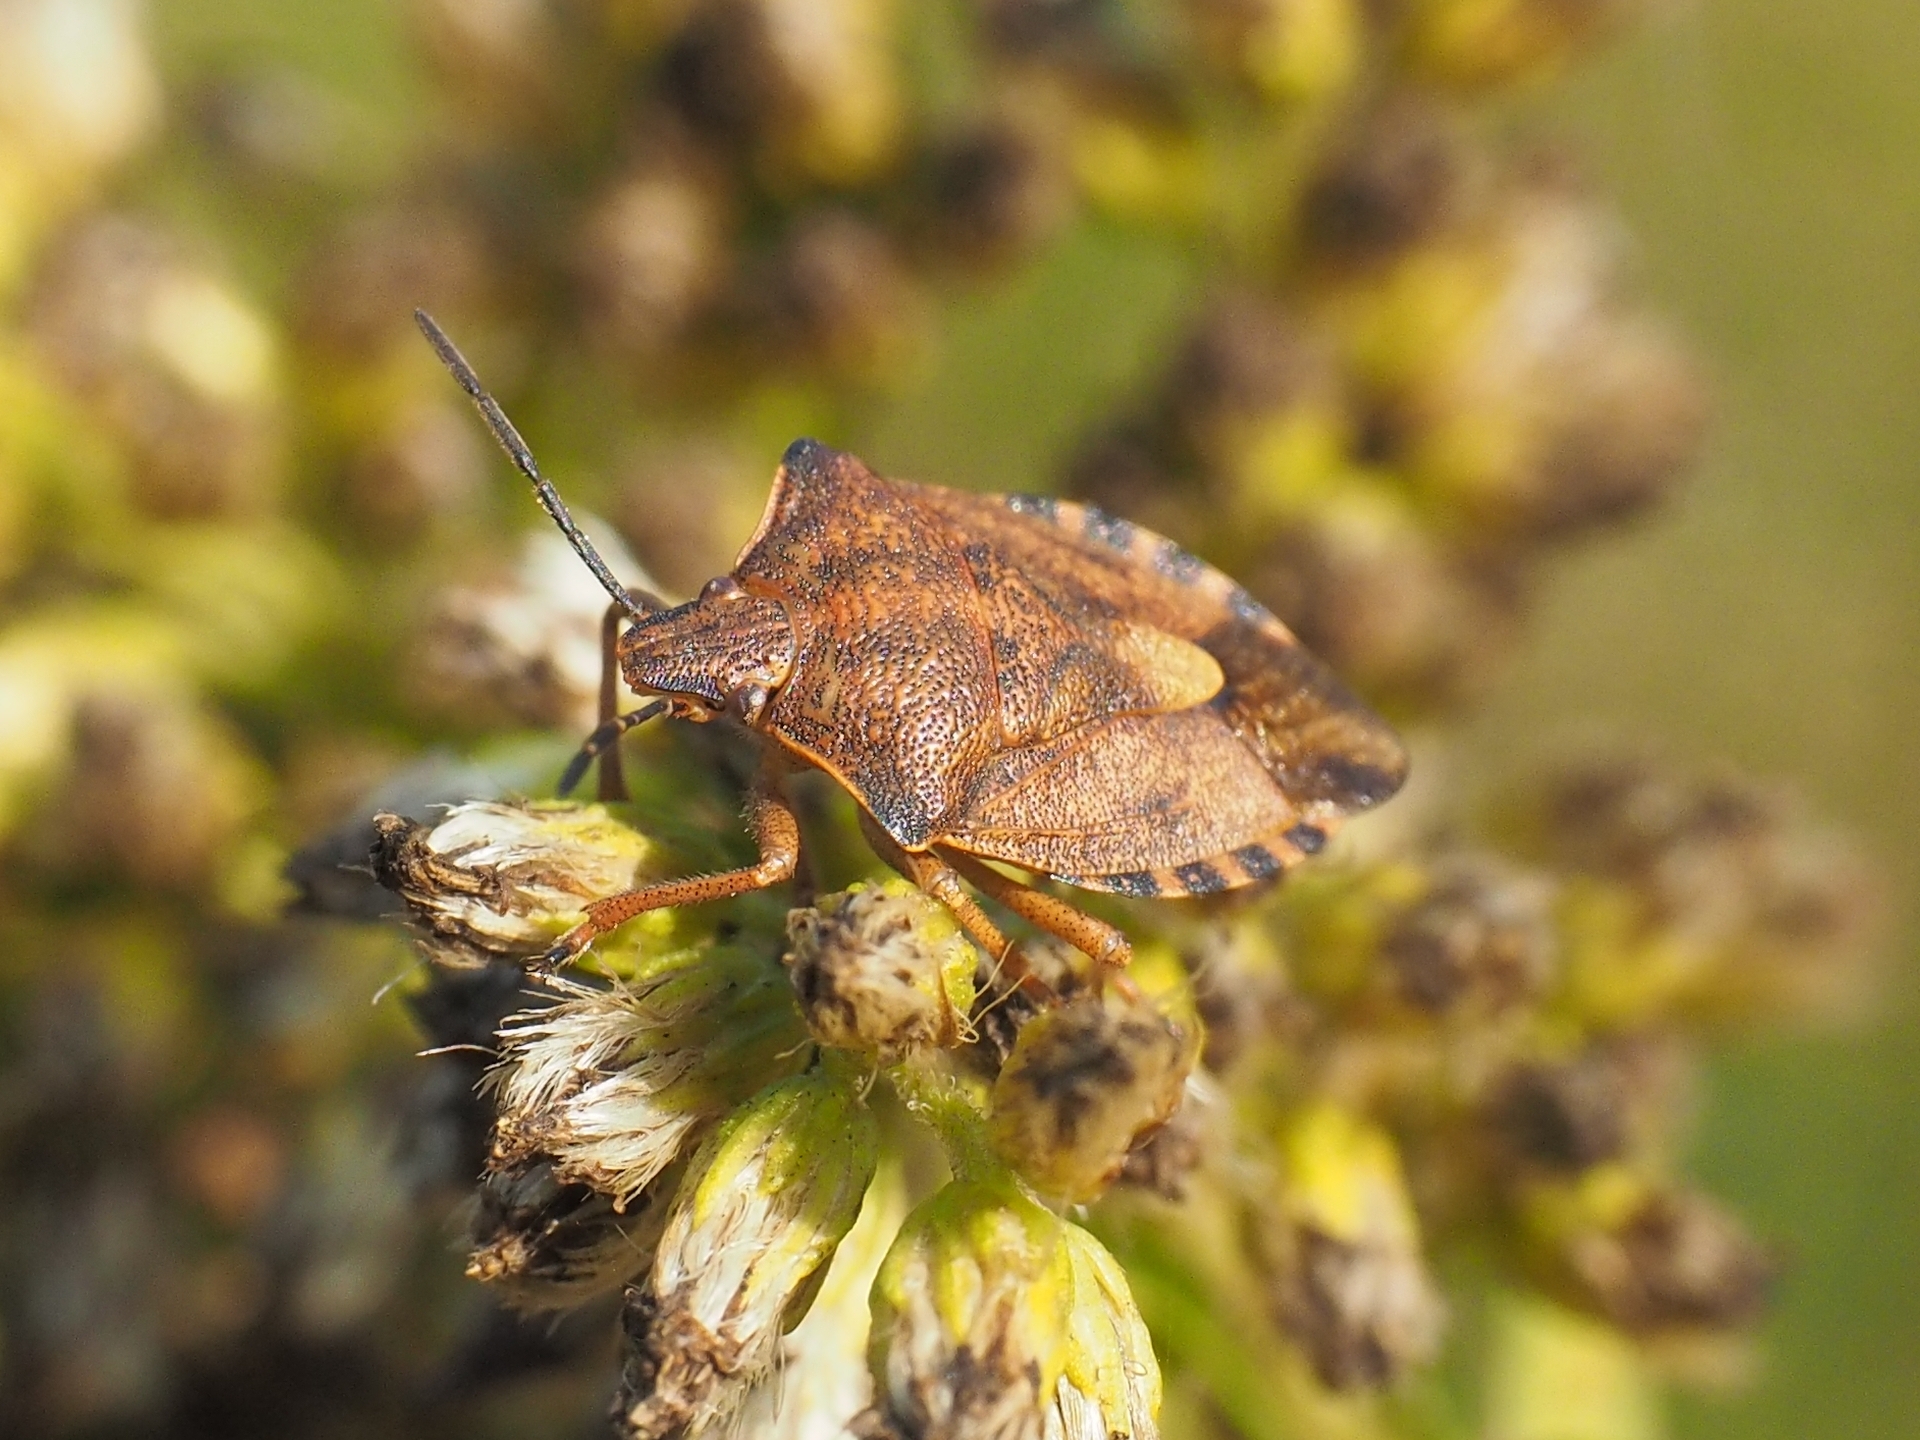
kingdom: Animalia
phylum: Arthropoda
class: Insecta
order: Hemiptera
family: Pentatomidae
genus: Carpocoris
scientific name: Carpocoris purpureipennis
